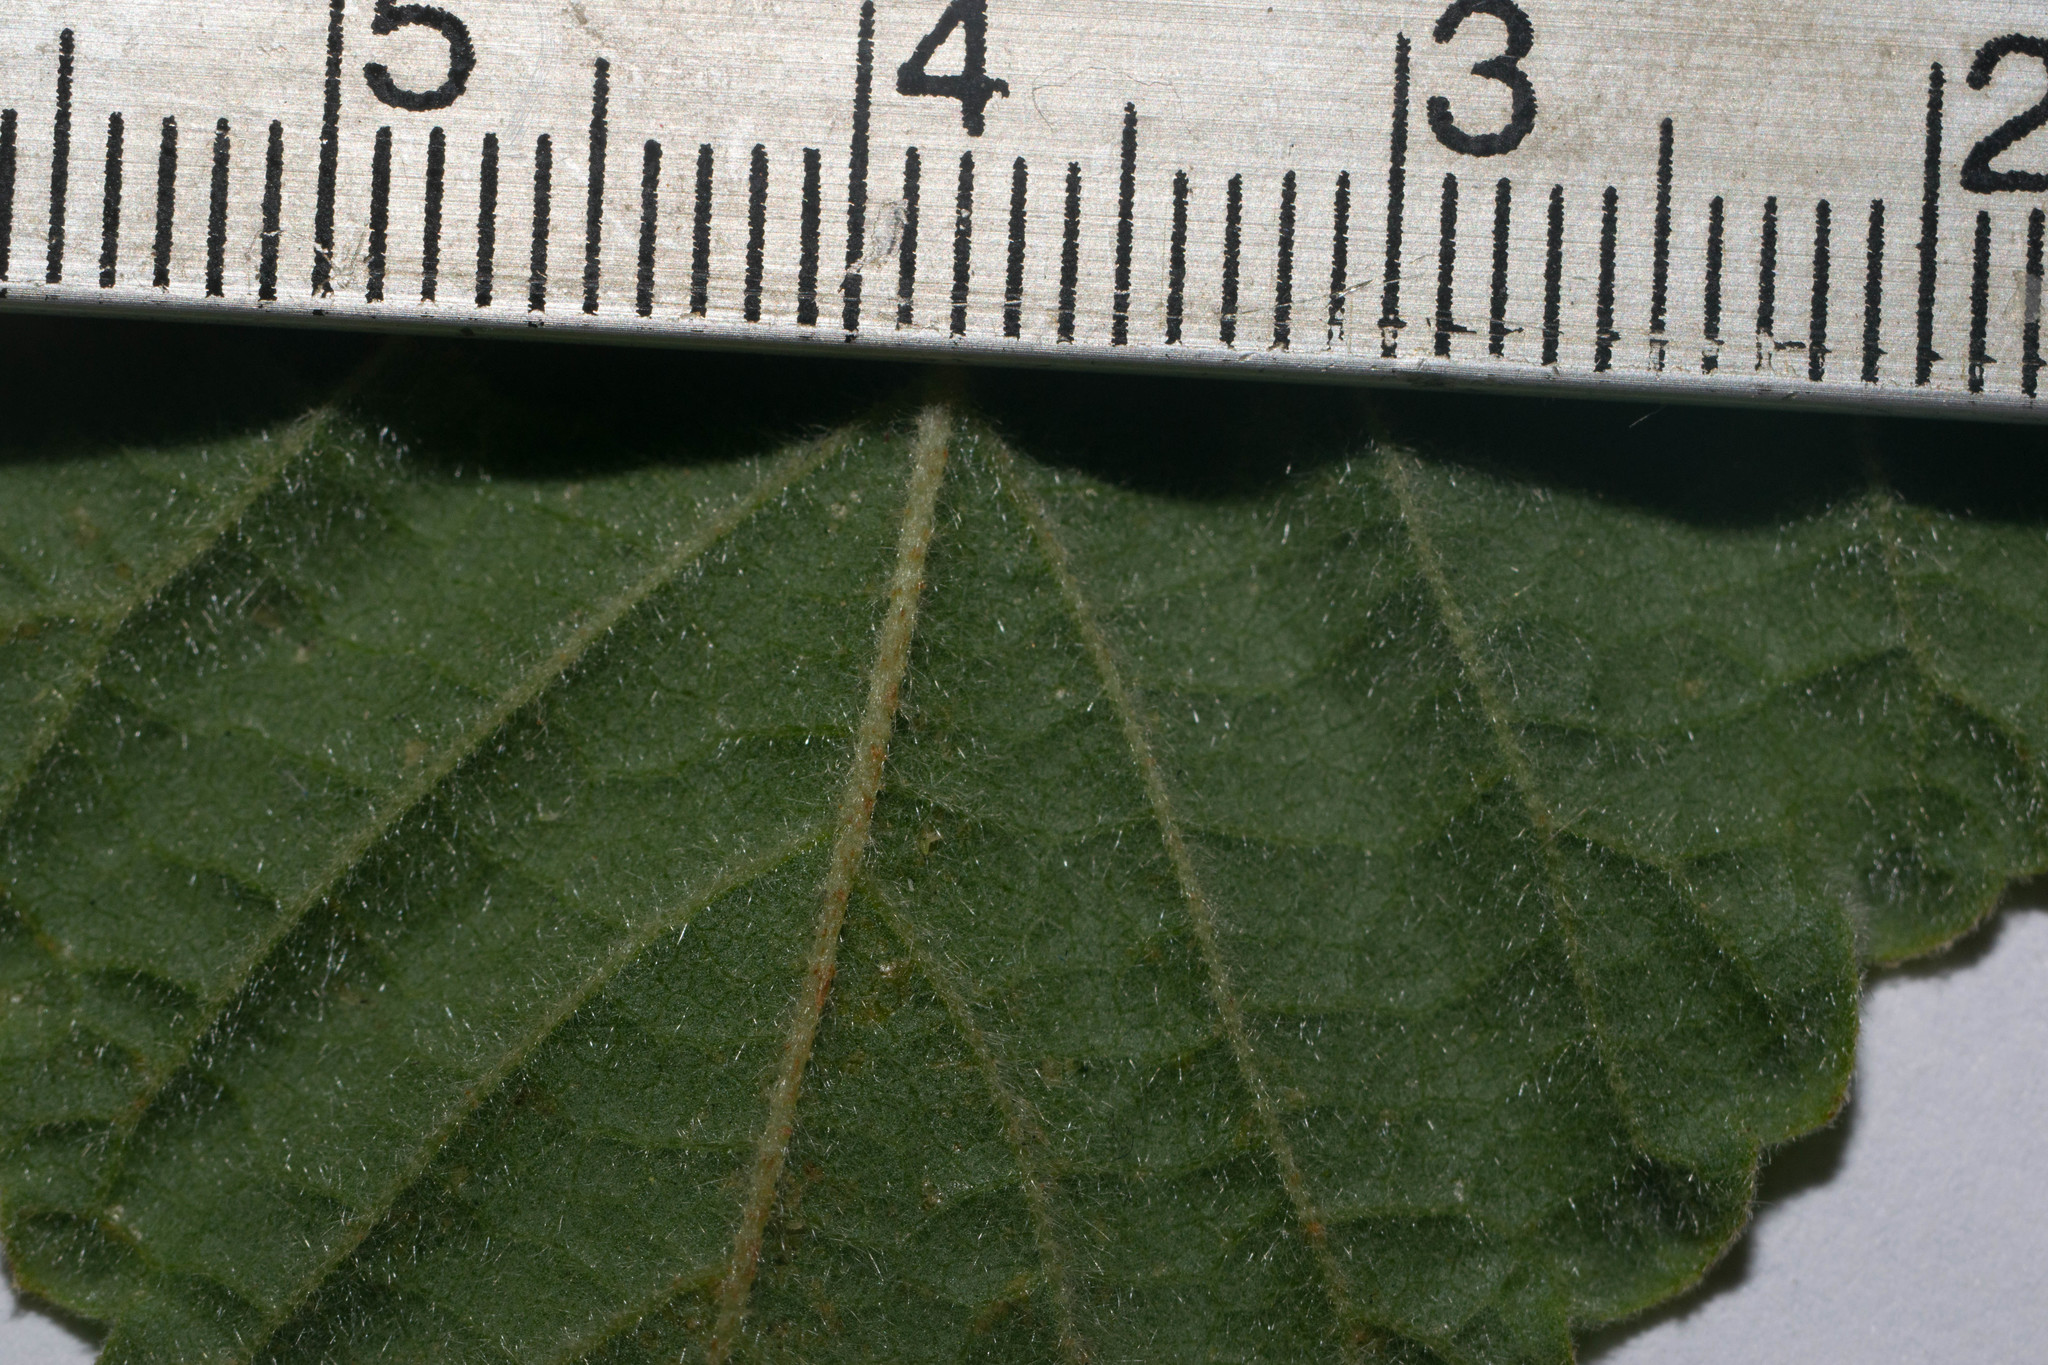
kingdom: Plantae
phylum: Tracheophyta
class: Magnoliopsida
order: Malvales
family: Malvaceae
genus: Waltheria
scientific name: Waltheria indica
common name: Leather-coat
